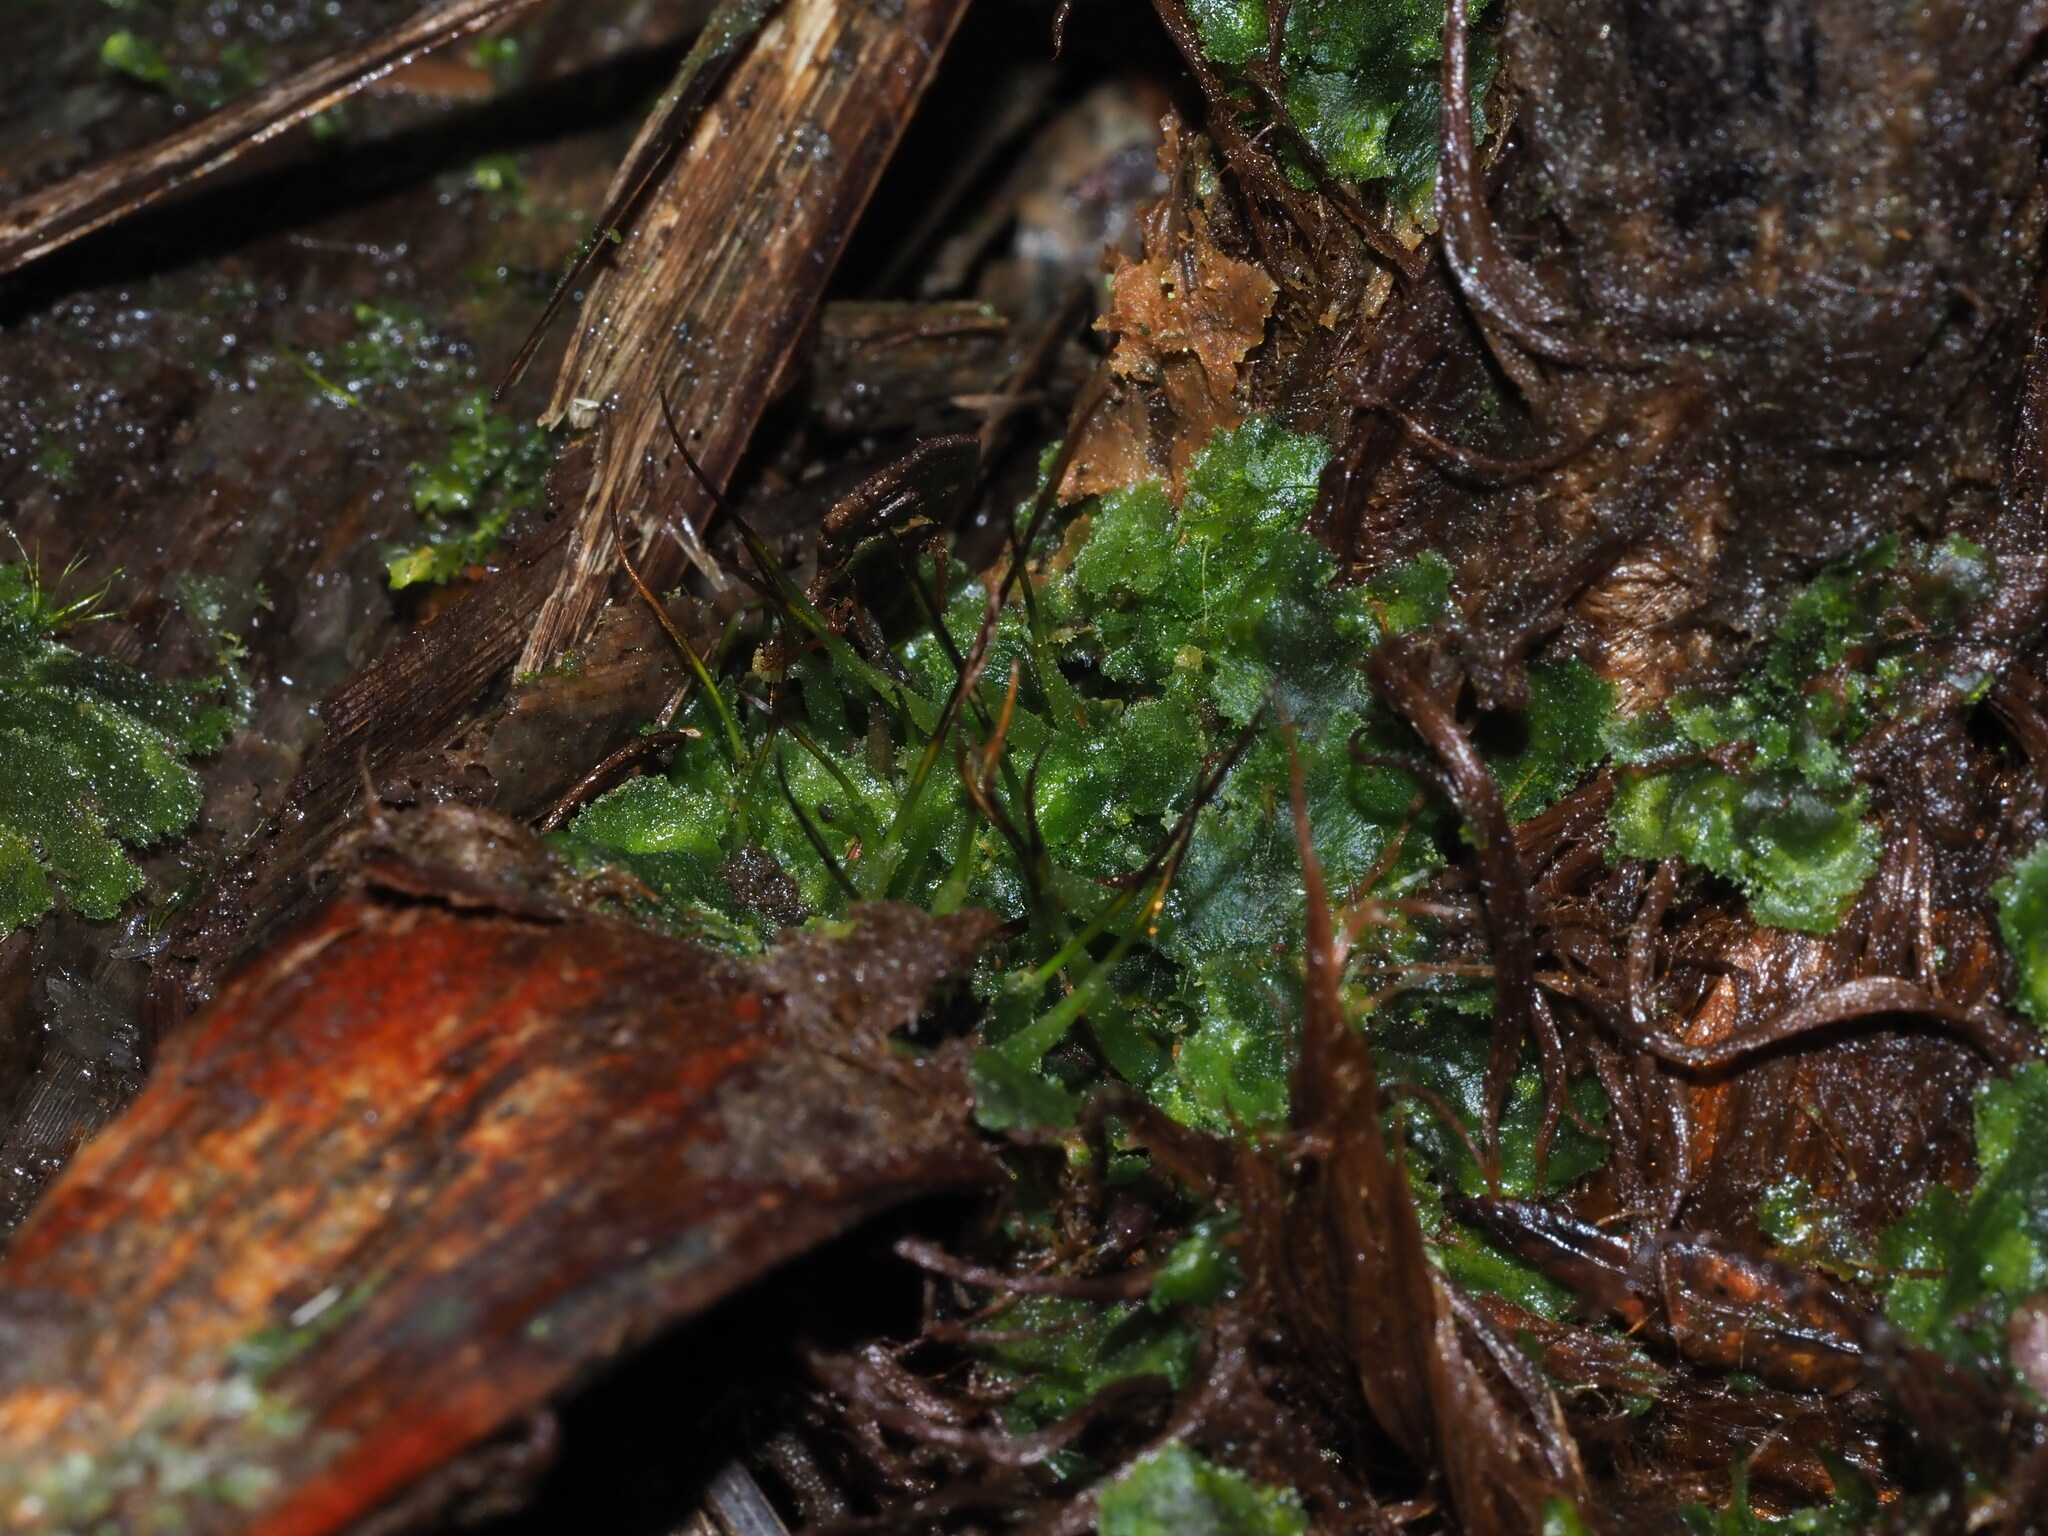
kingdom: Plantae
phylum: Anthocerotophyta
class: Anthocerotopsida
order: Dendrocerotales
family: Dendrocerotaceae
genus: Megaceros
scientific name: Megaceros flagellaris
